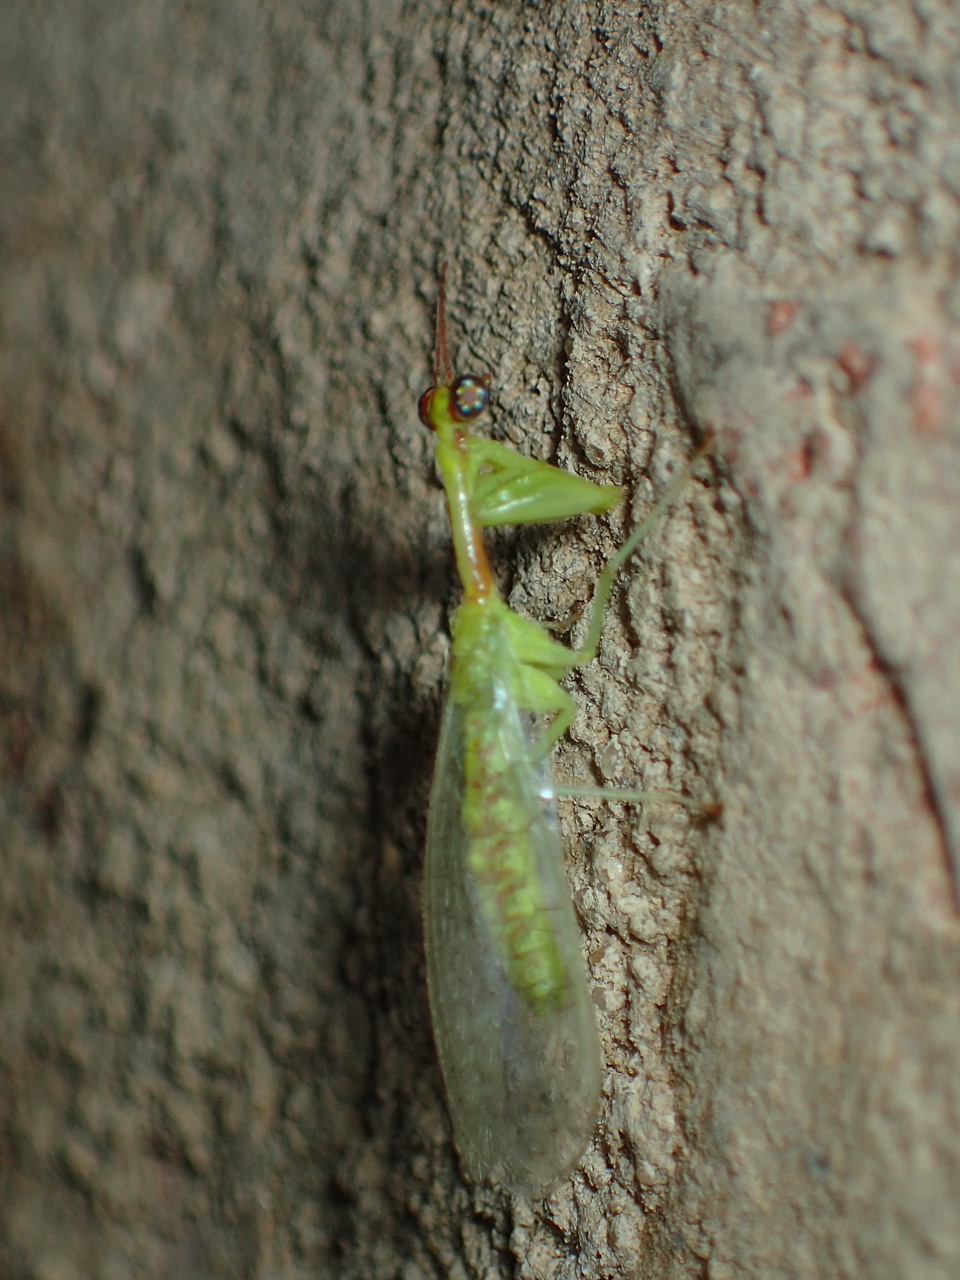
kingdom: Animalia
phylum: Arthropoda
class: Insecta
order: Neuroptera
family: Mantispidae
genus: Zeugomantispa
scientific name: Zeugomantispa minuta
